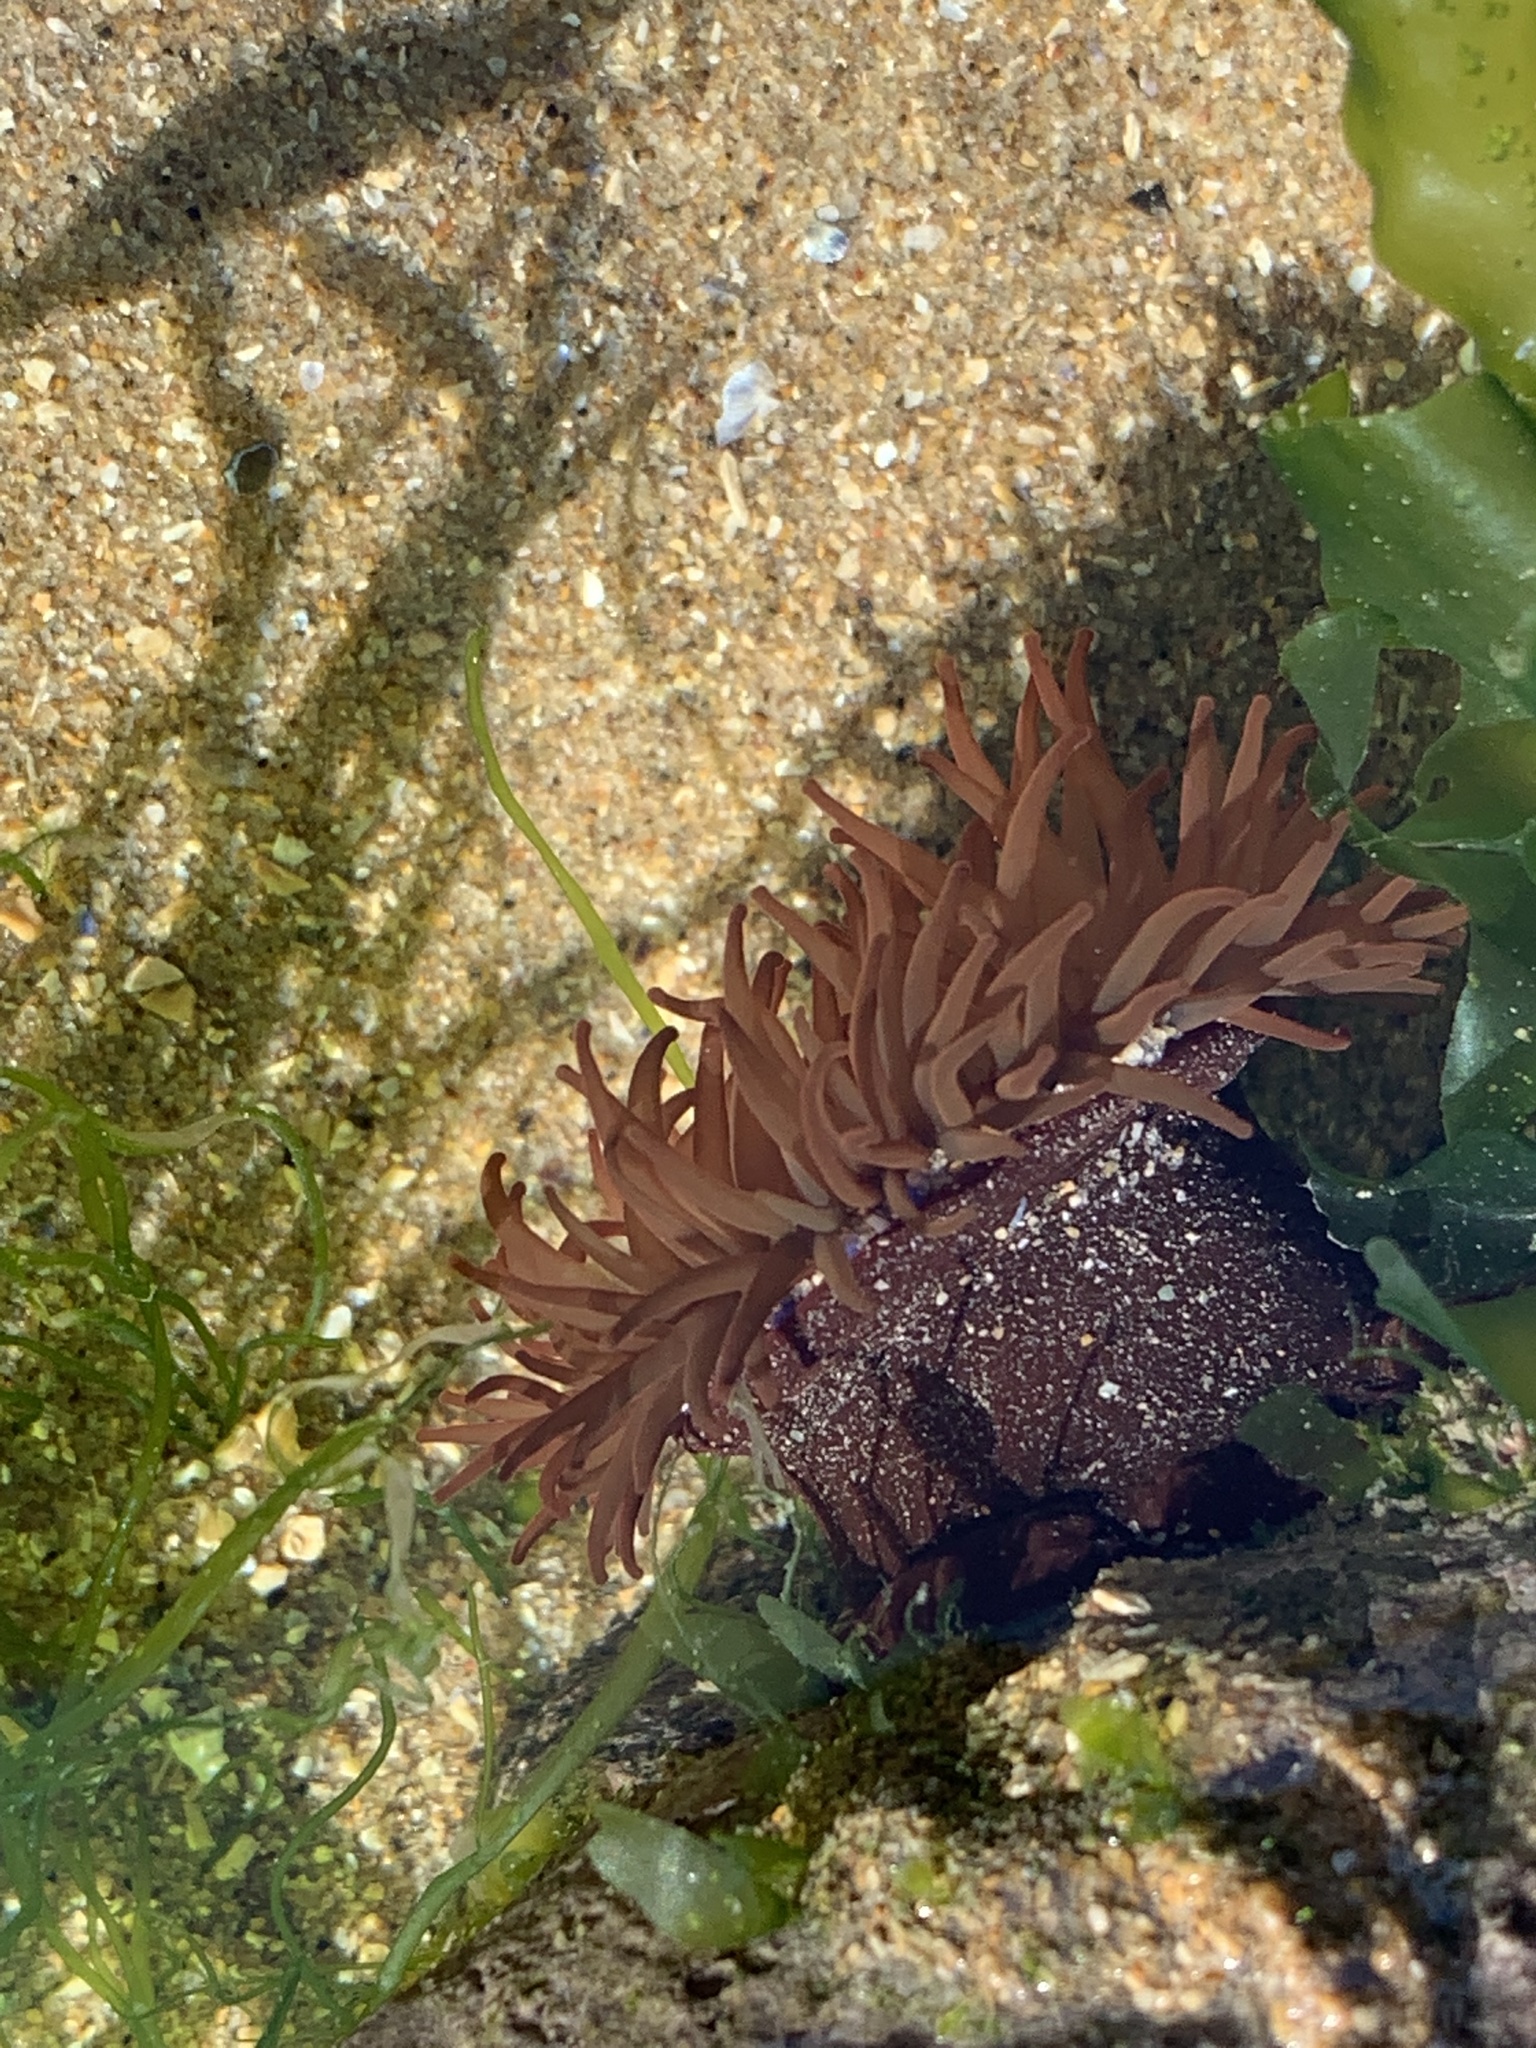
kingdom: Animalia
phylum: Cnidaria
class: Anthozoa
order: Actiniaria
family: Actiniidae
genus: Actinia
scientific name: Actinia equina
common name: Beadlet anemone
